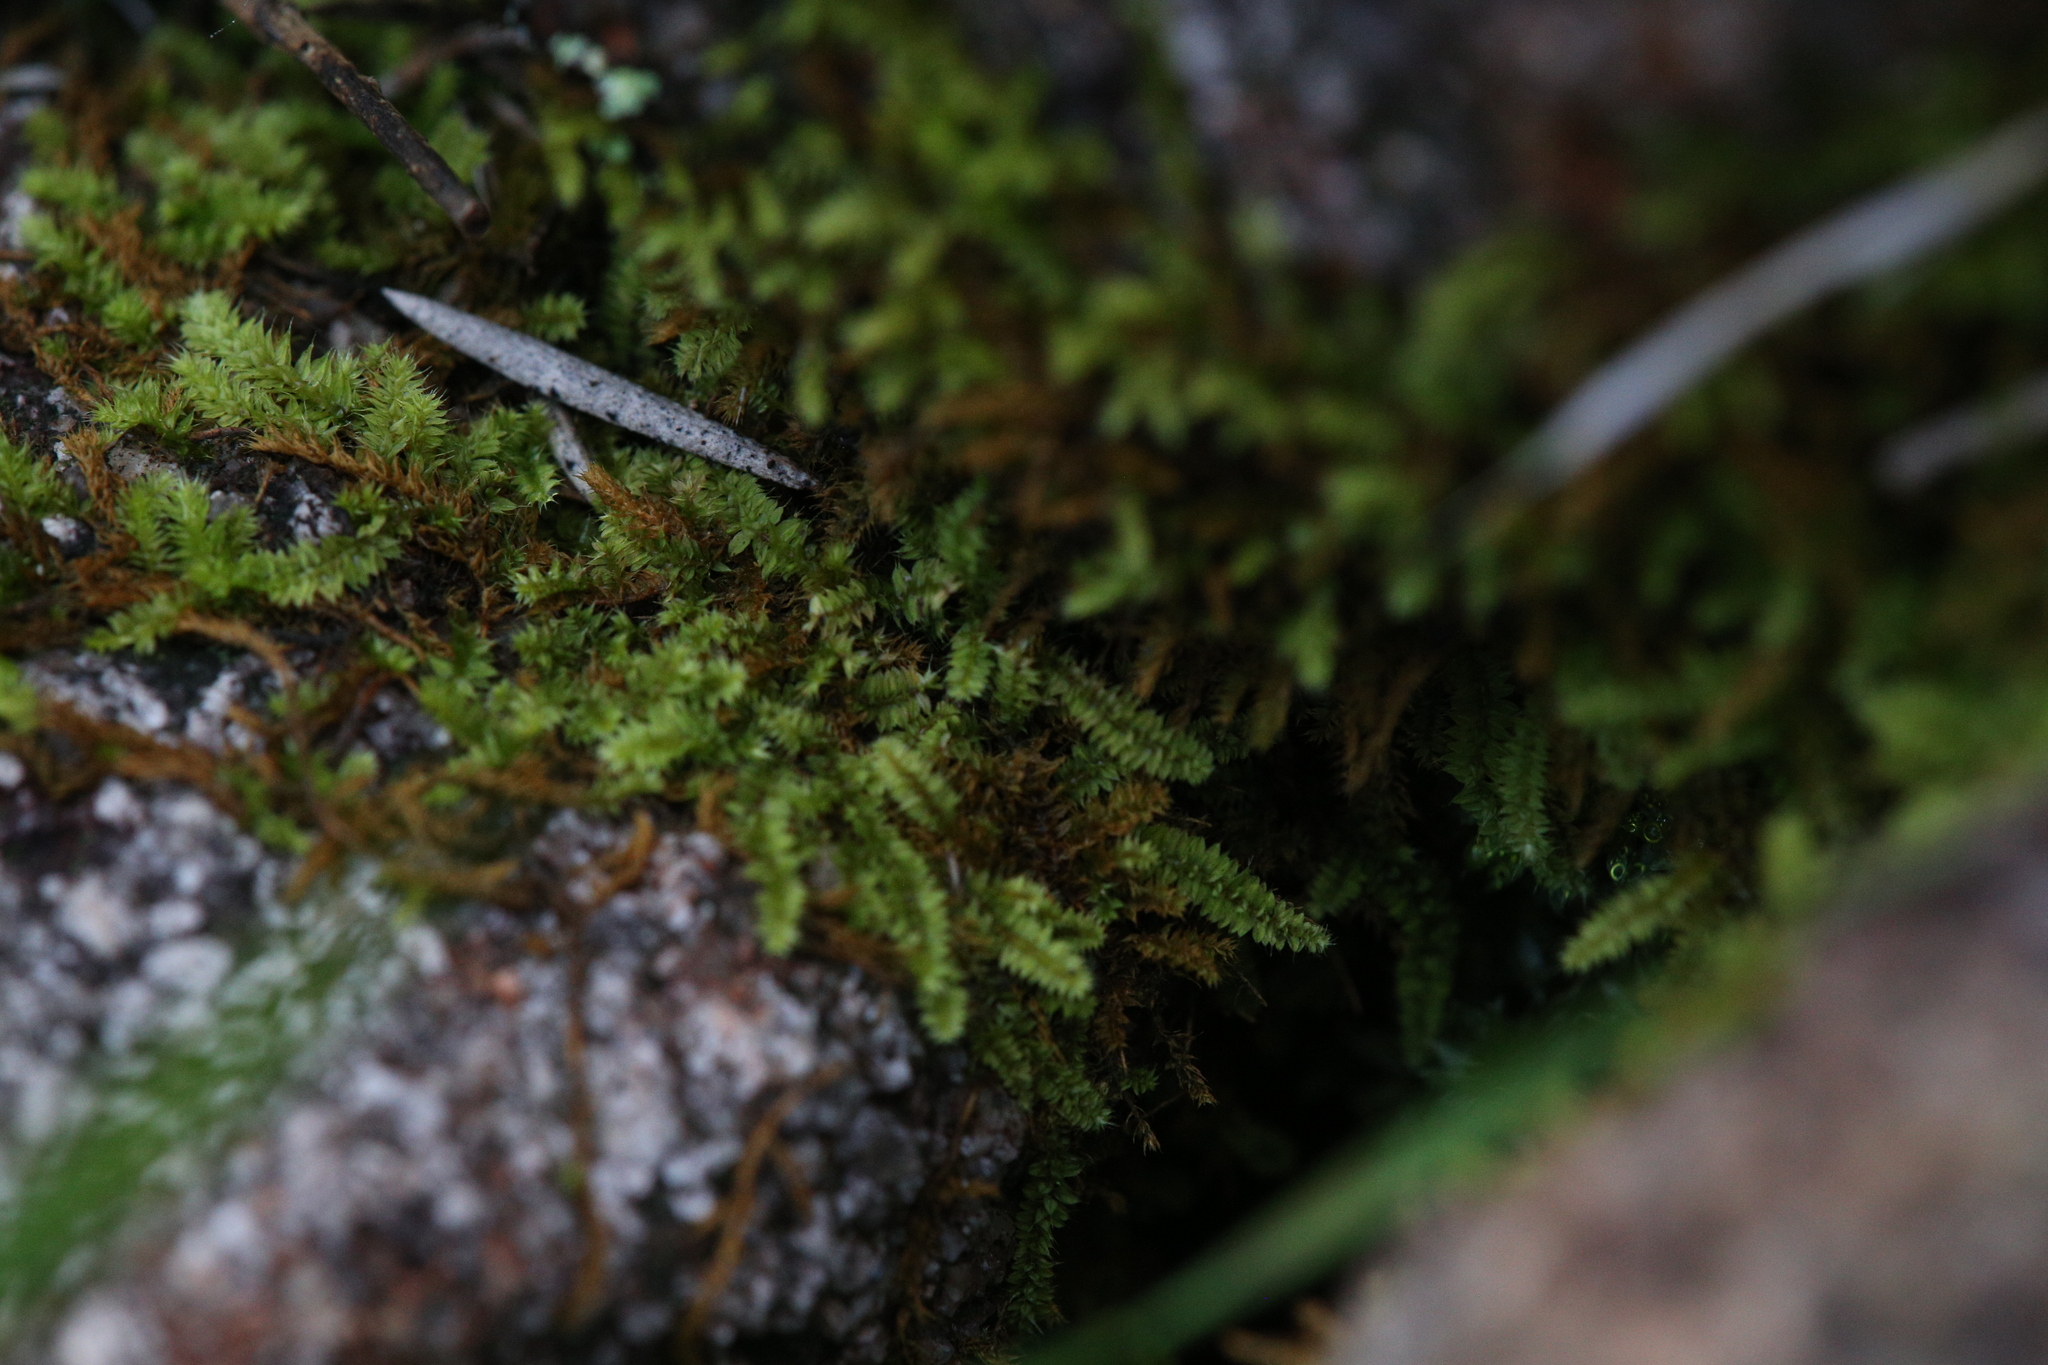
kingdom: Plantae
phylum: Bryophyta
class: Bryopsida
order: Hypnodendrales
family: Racopilaceae
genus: Racopilum
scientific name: Racopilum cuspidigerum
